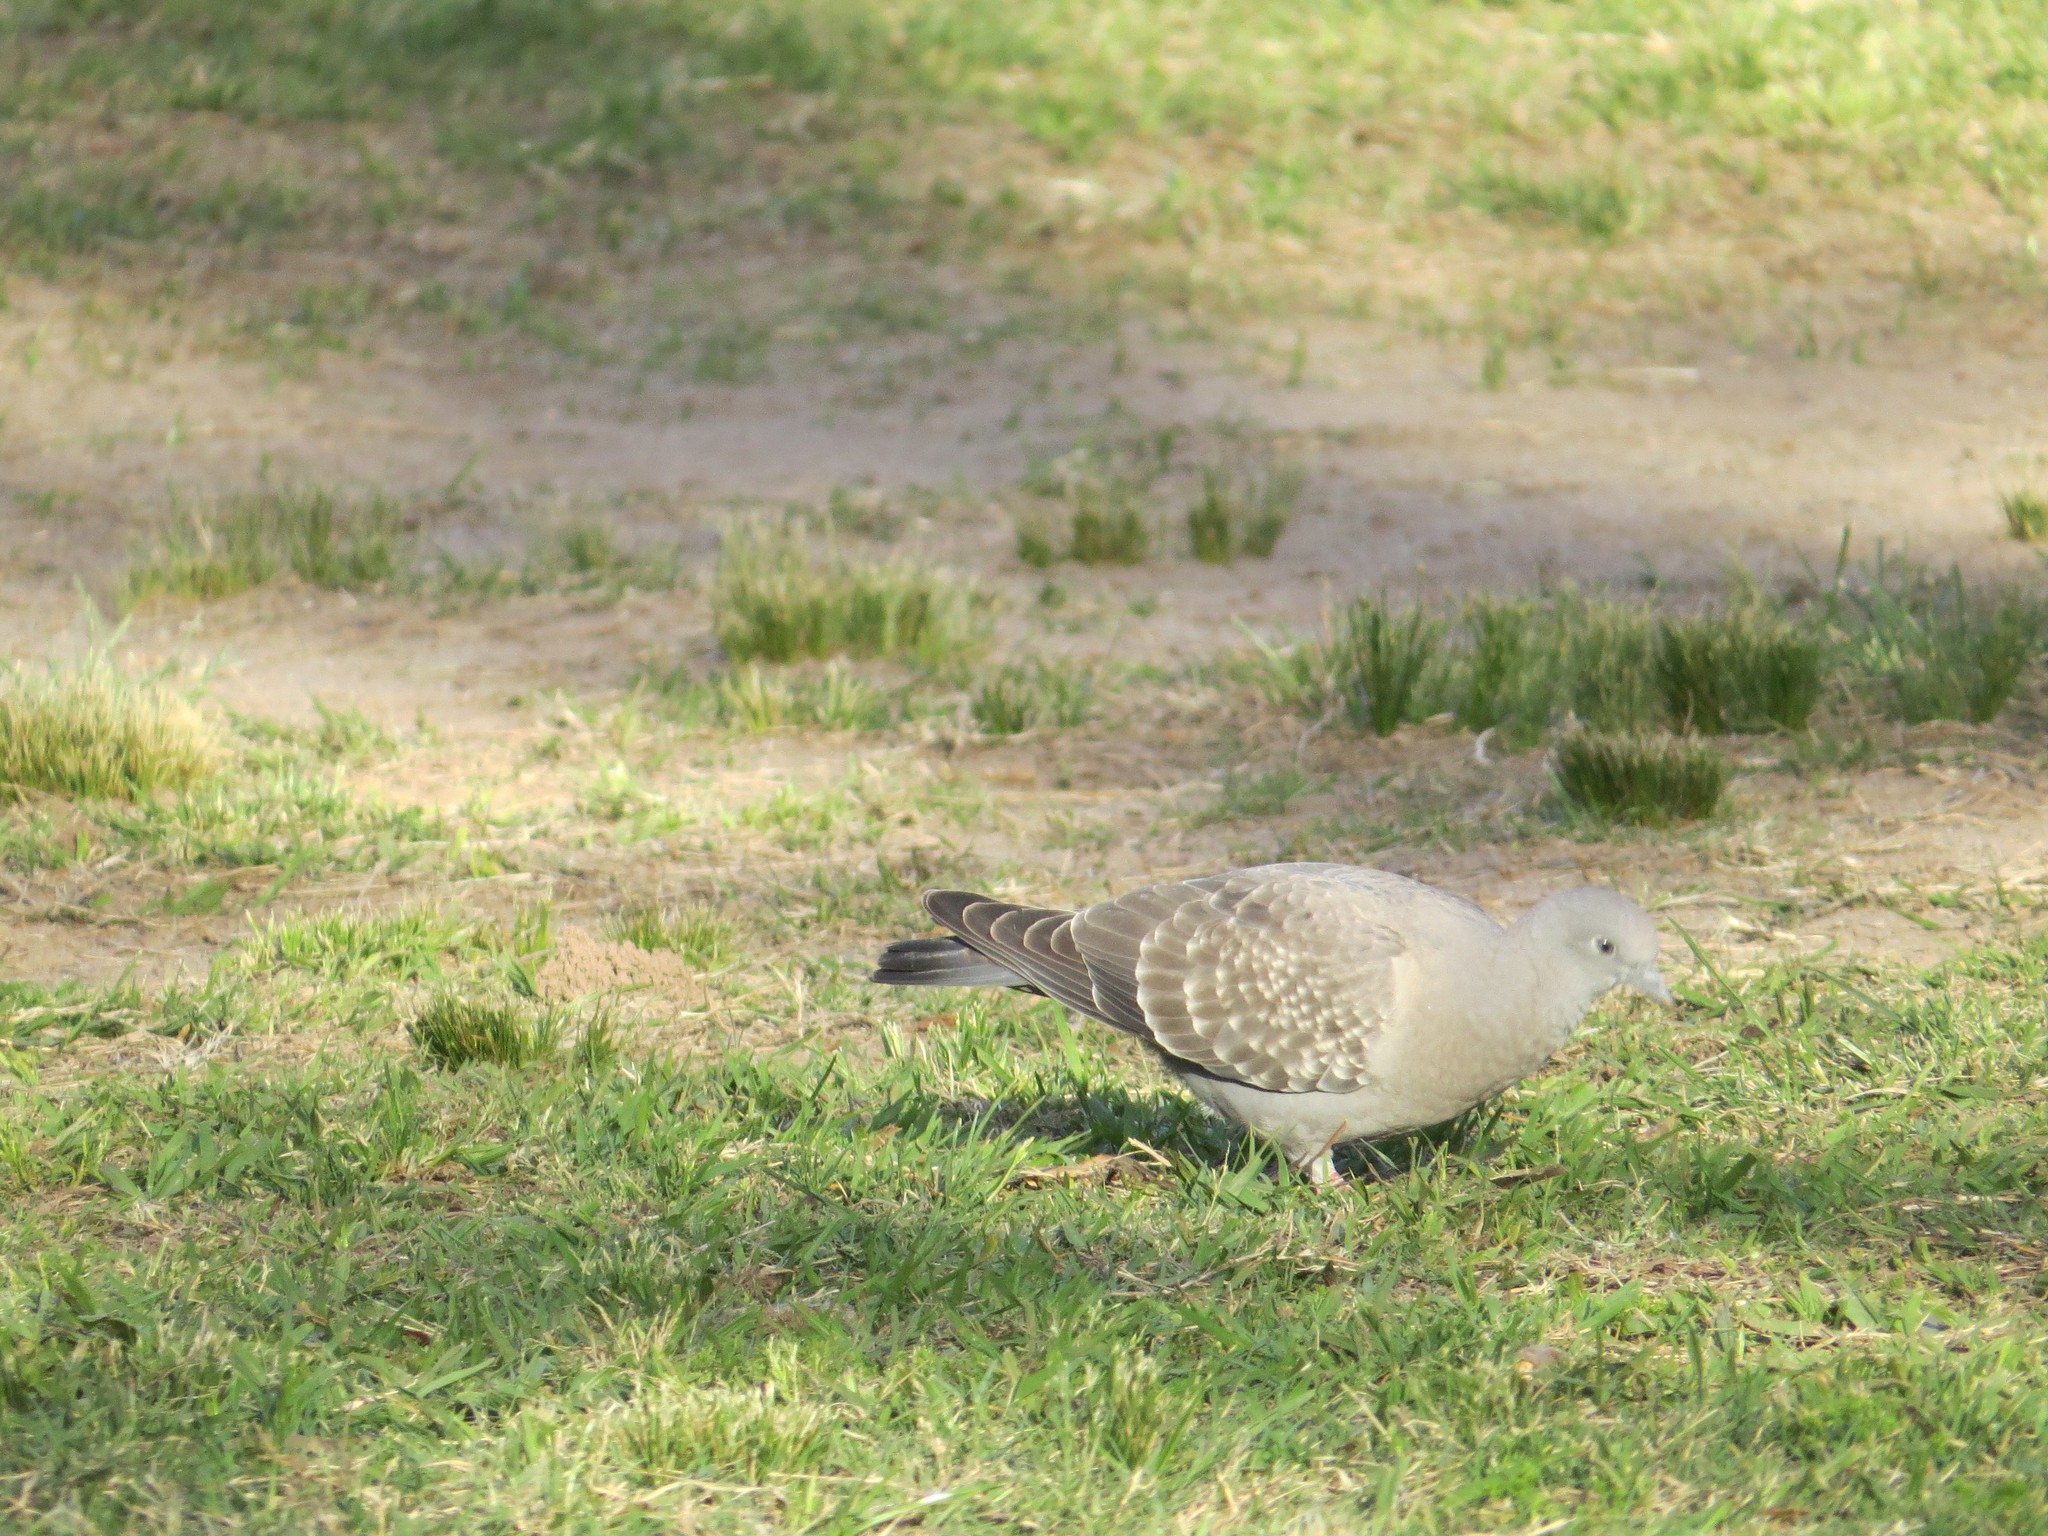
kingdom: Animalia
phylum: Chordata
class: Aves
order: Columbiformes
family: Columbidae
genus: Patagioenas
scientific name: Patagioenas maculosa
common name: Spot-winged pigeon
